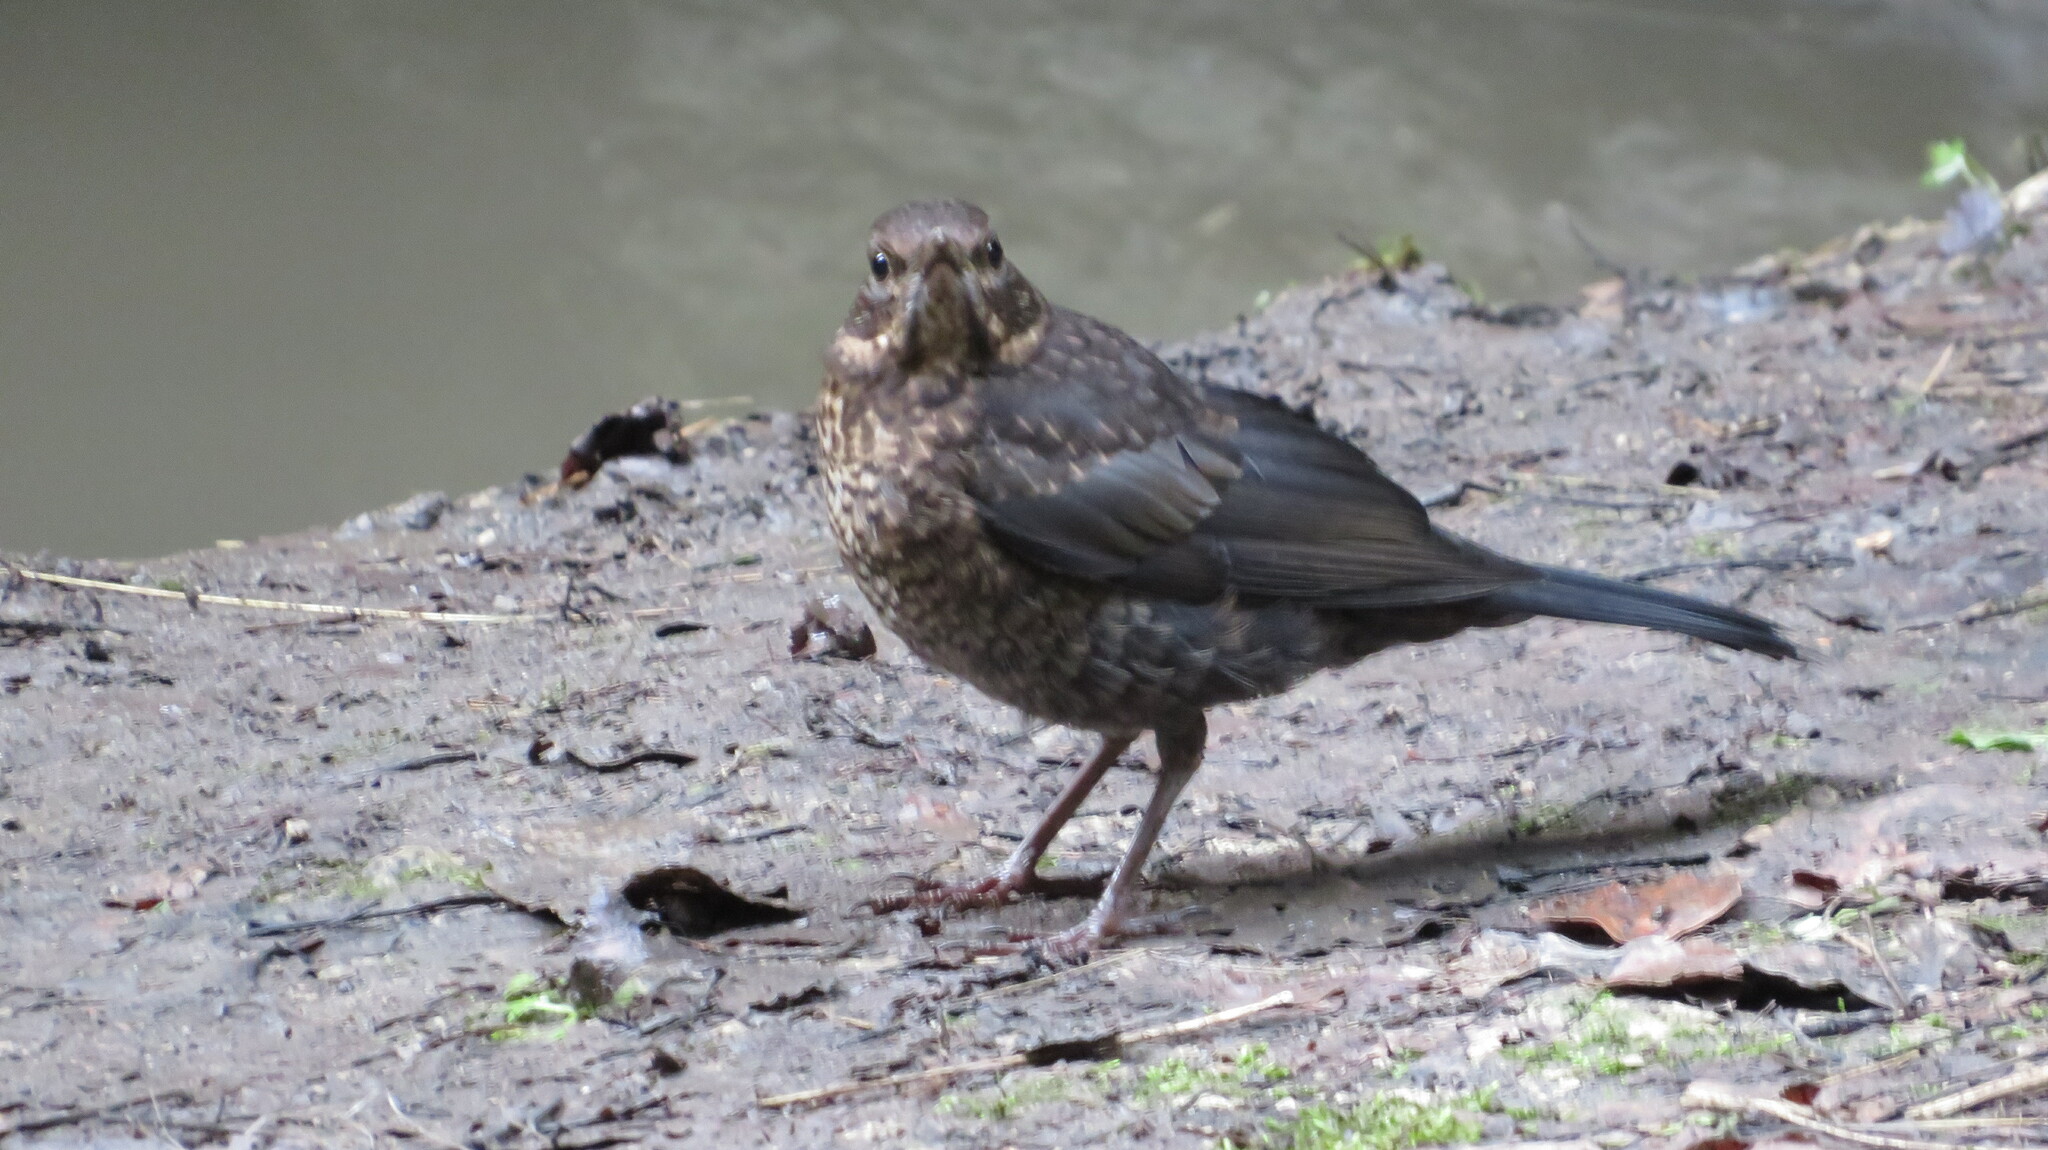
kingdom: Animalia
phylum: Chordata
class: Aves
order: Passeriformes
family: Turdidae
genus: Turdus
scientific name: Turdus merula
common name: Common blackbird
